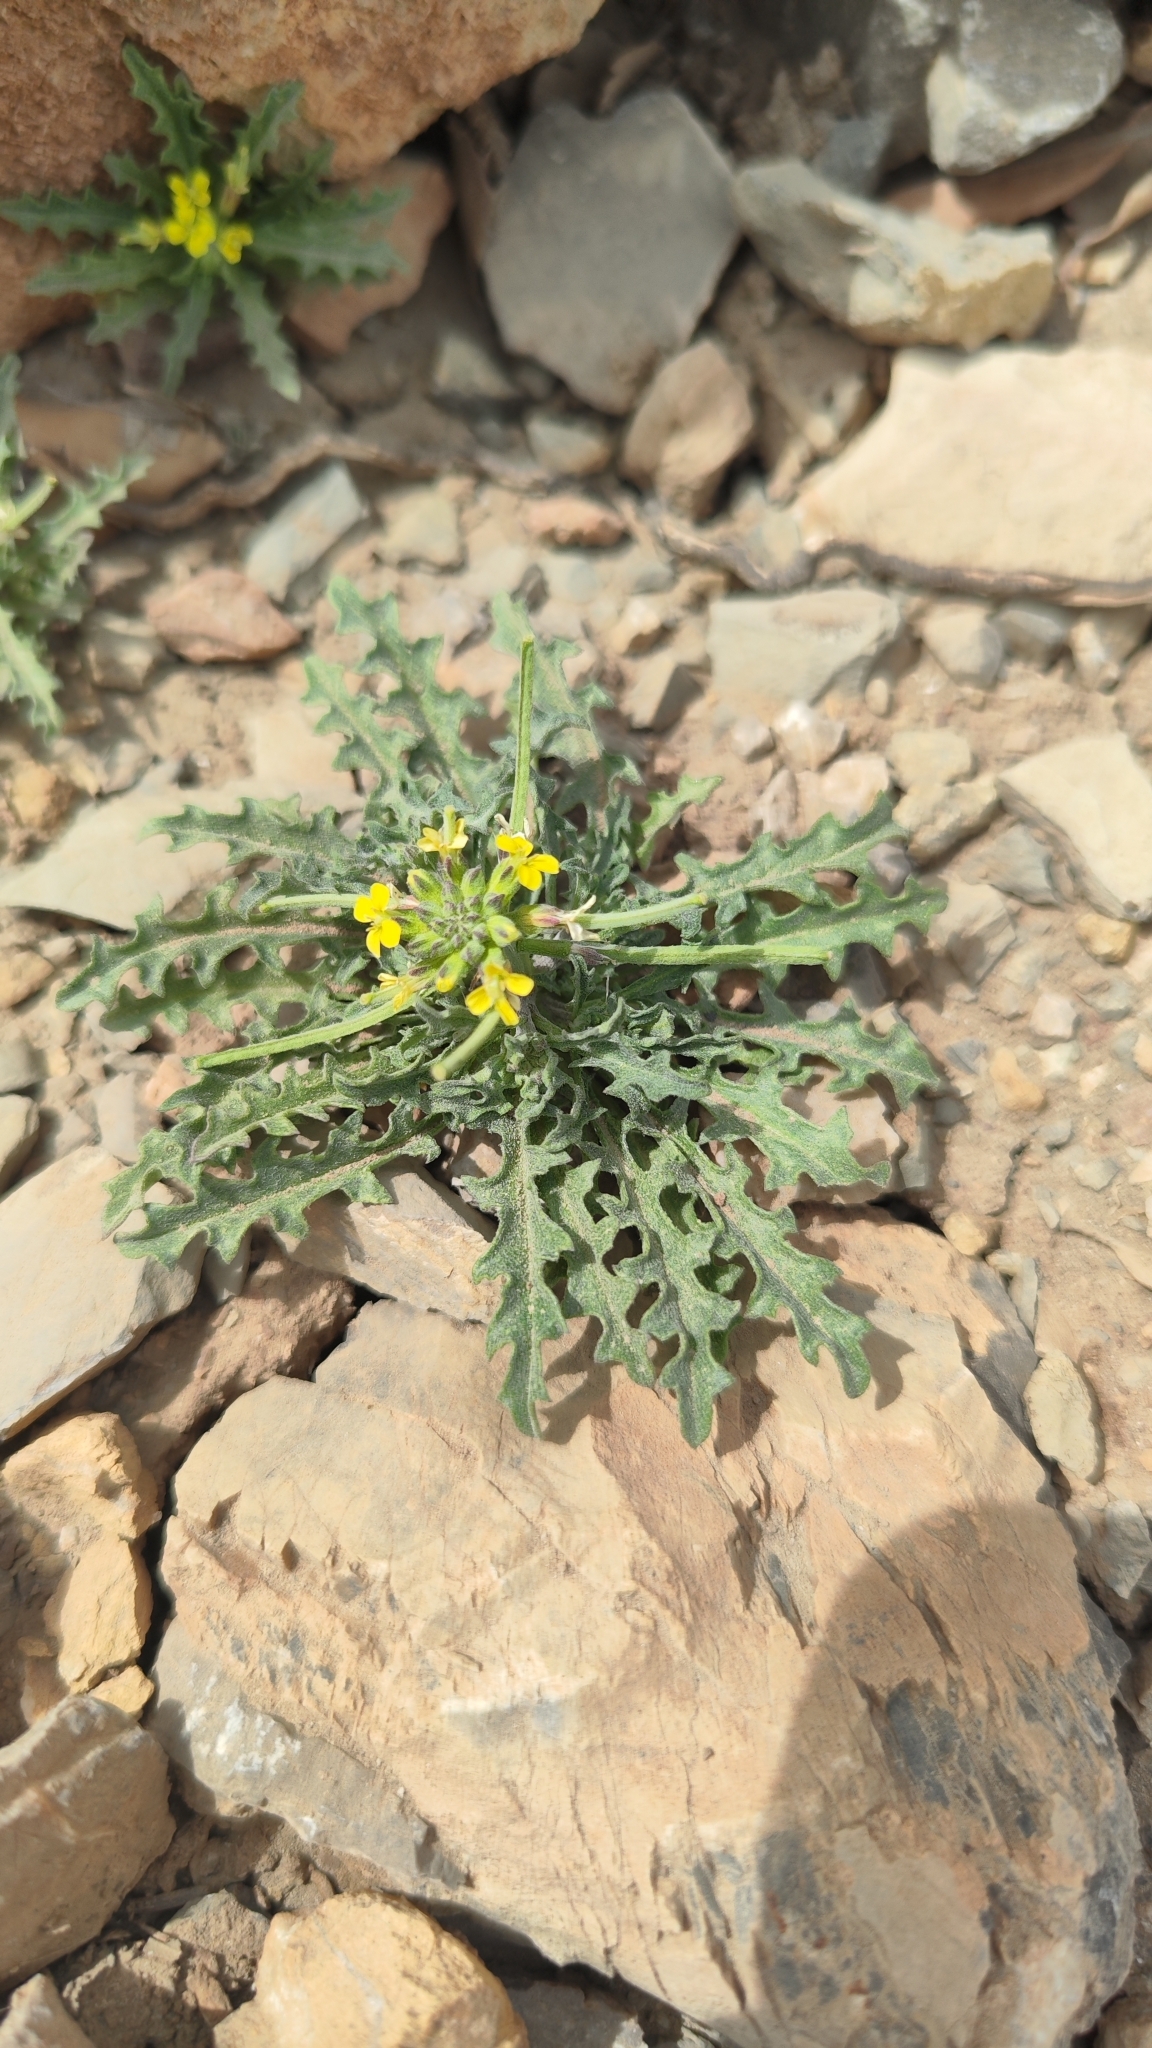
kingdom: Plantae
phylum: Tracheophyta
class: Magnoliopsida
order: Brassicales
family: Brassicaceae
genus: Erysimum
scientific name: Erysimum incanum
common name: Hoary treacle mustard
